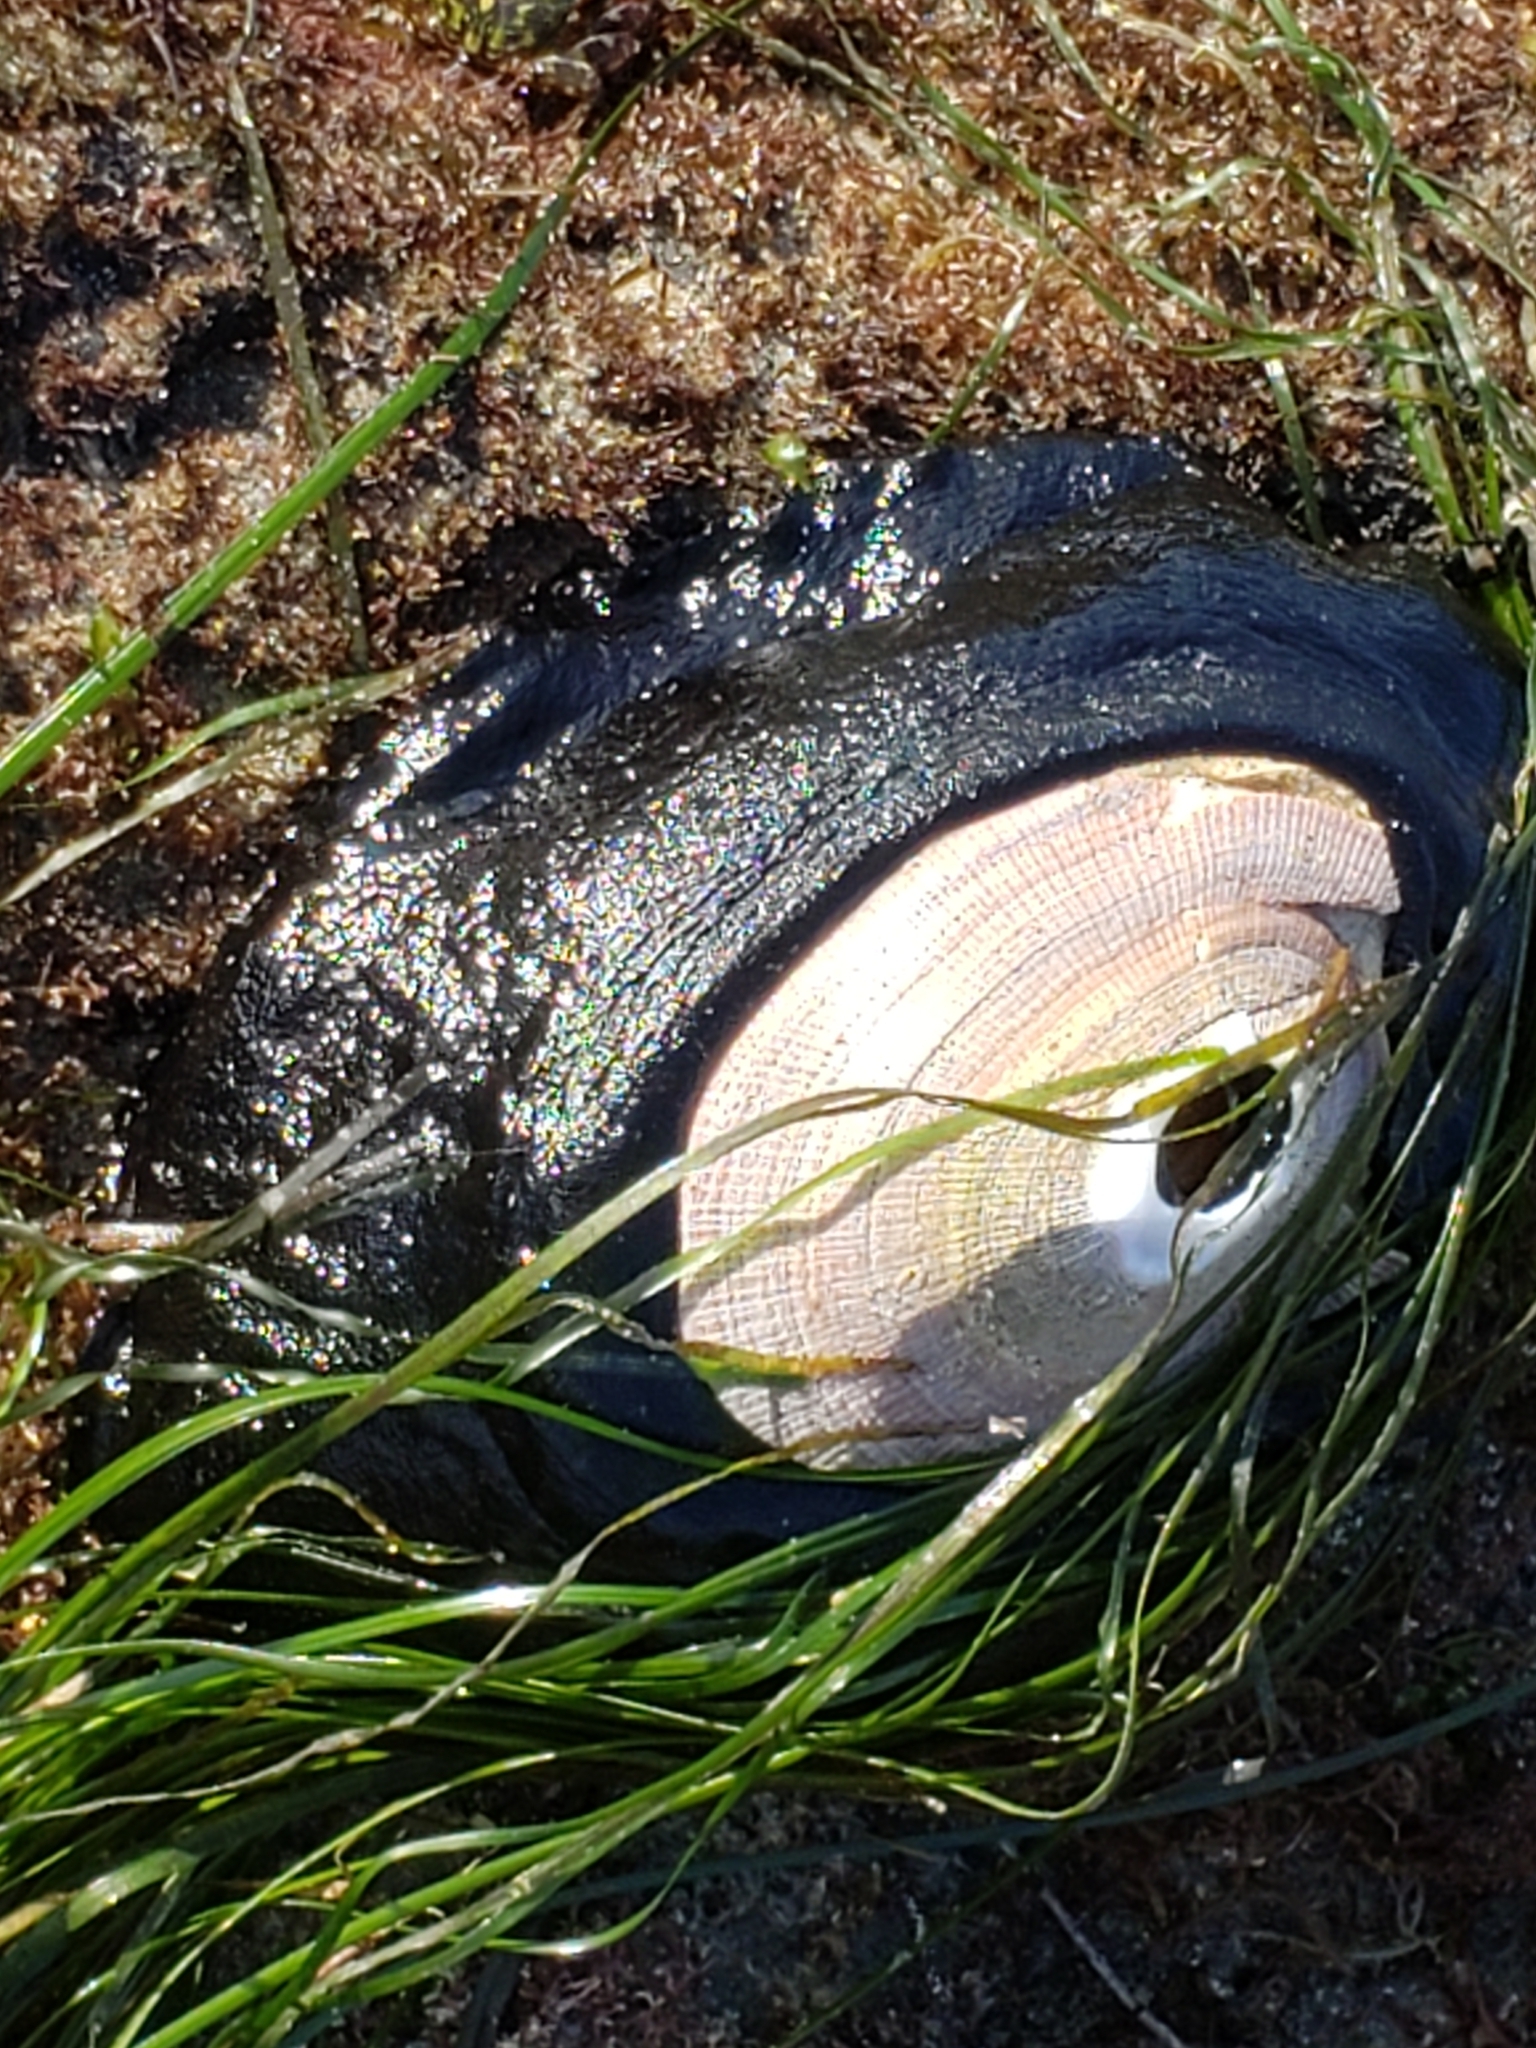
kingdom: Animalia
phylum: Mollusca
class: Gastropoda
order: Lepetellida
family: Fissurellidae
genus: Megathura
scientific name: Megathura crenulata
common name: Giant keyhole limpet
